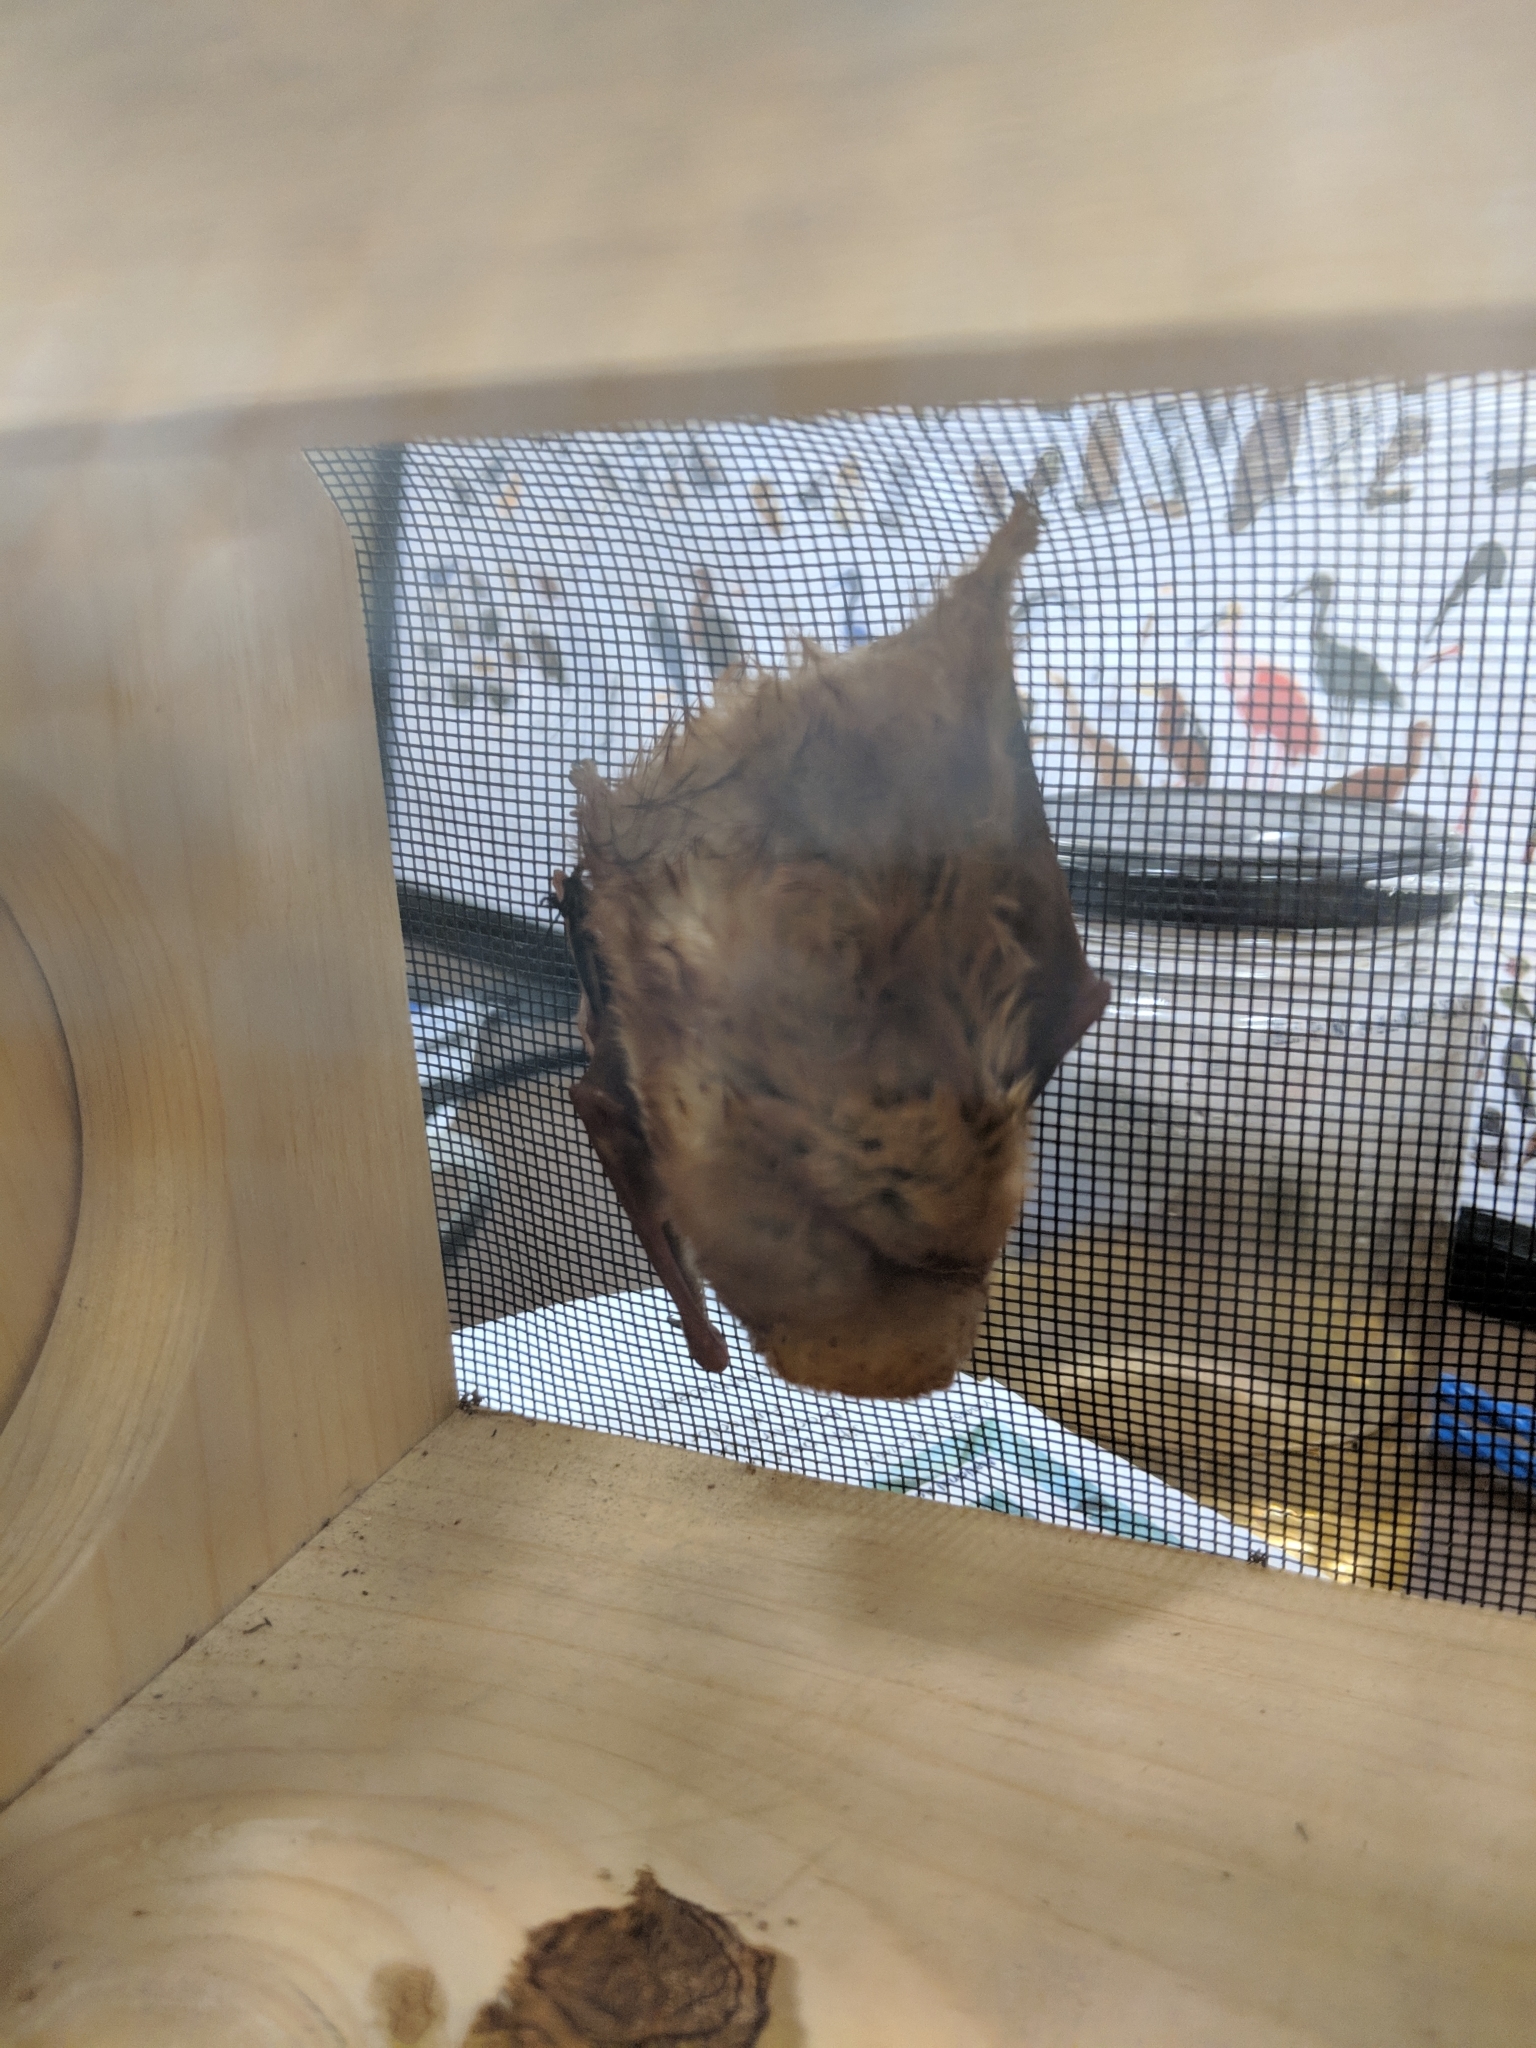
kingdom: Animalia
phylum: Chordata
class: Mammalia
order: Chiroptera
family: Vespertilionidae
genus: Lasiurus
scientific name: Lasiurus borealis
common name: Eastern red bat
